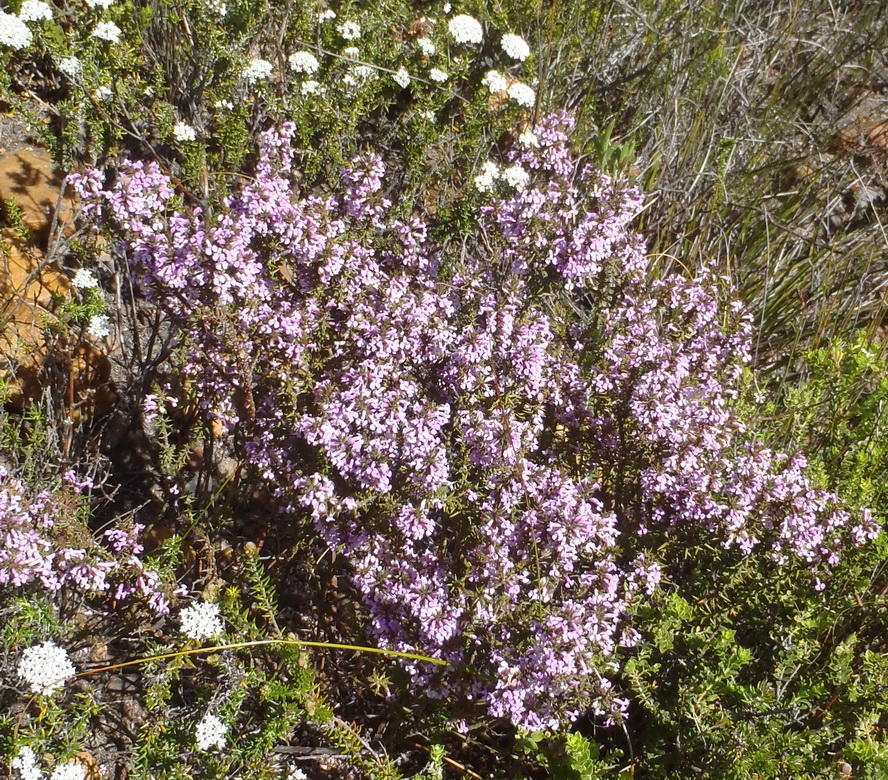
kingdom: Plantae
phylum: Tracheophyta
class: Magnoliopsida
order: Fabales
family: Polygalaceae
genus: Muraltia
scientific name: Muraltia juniperifolia
